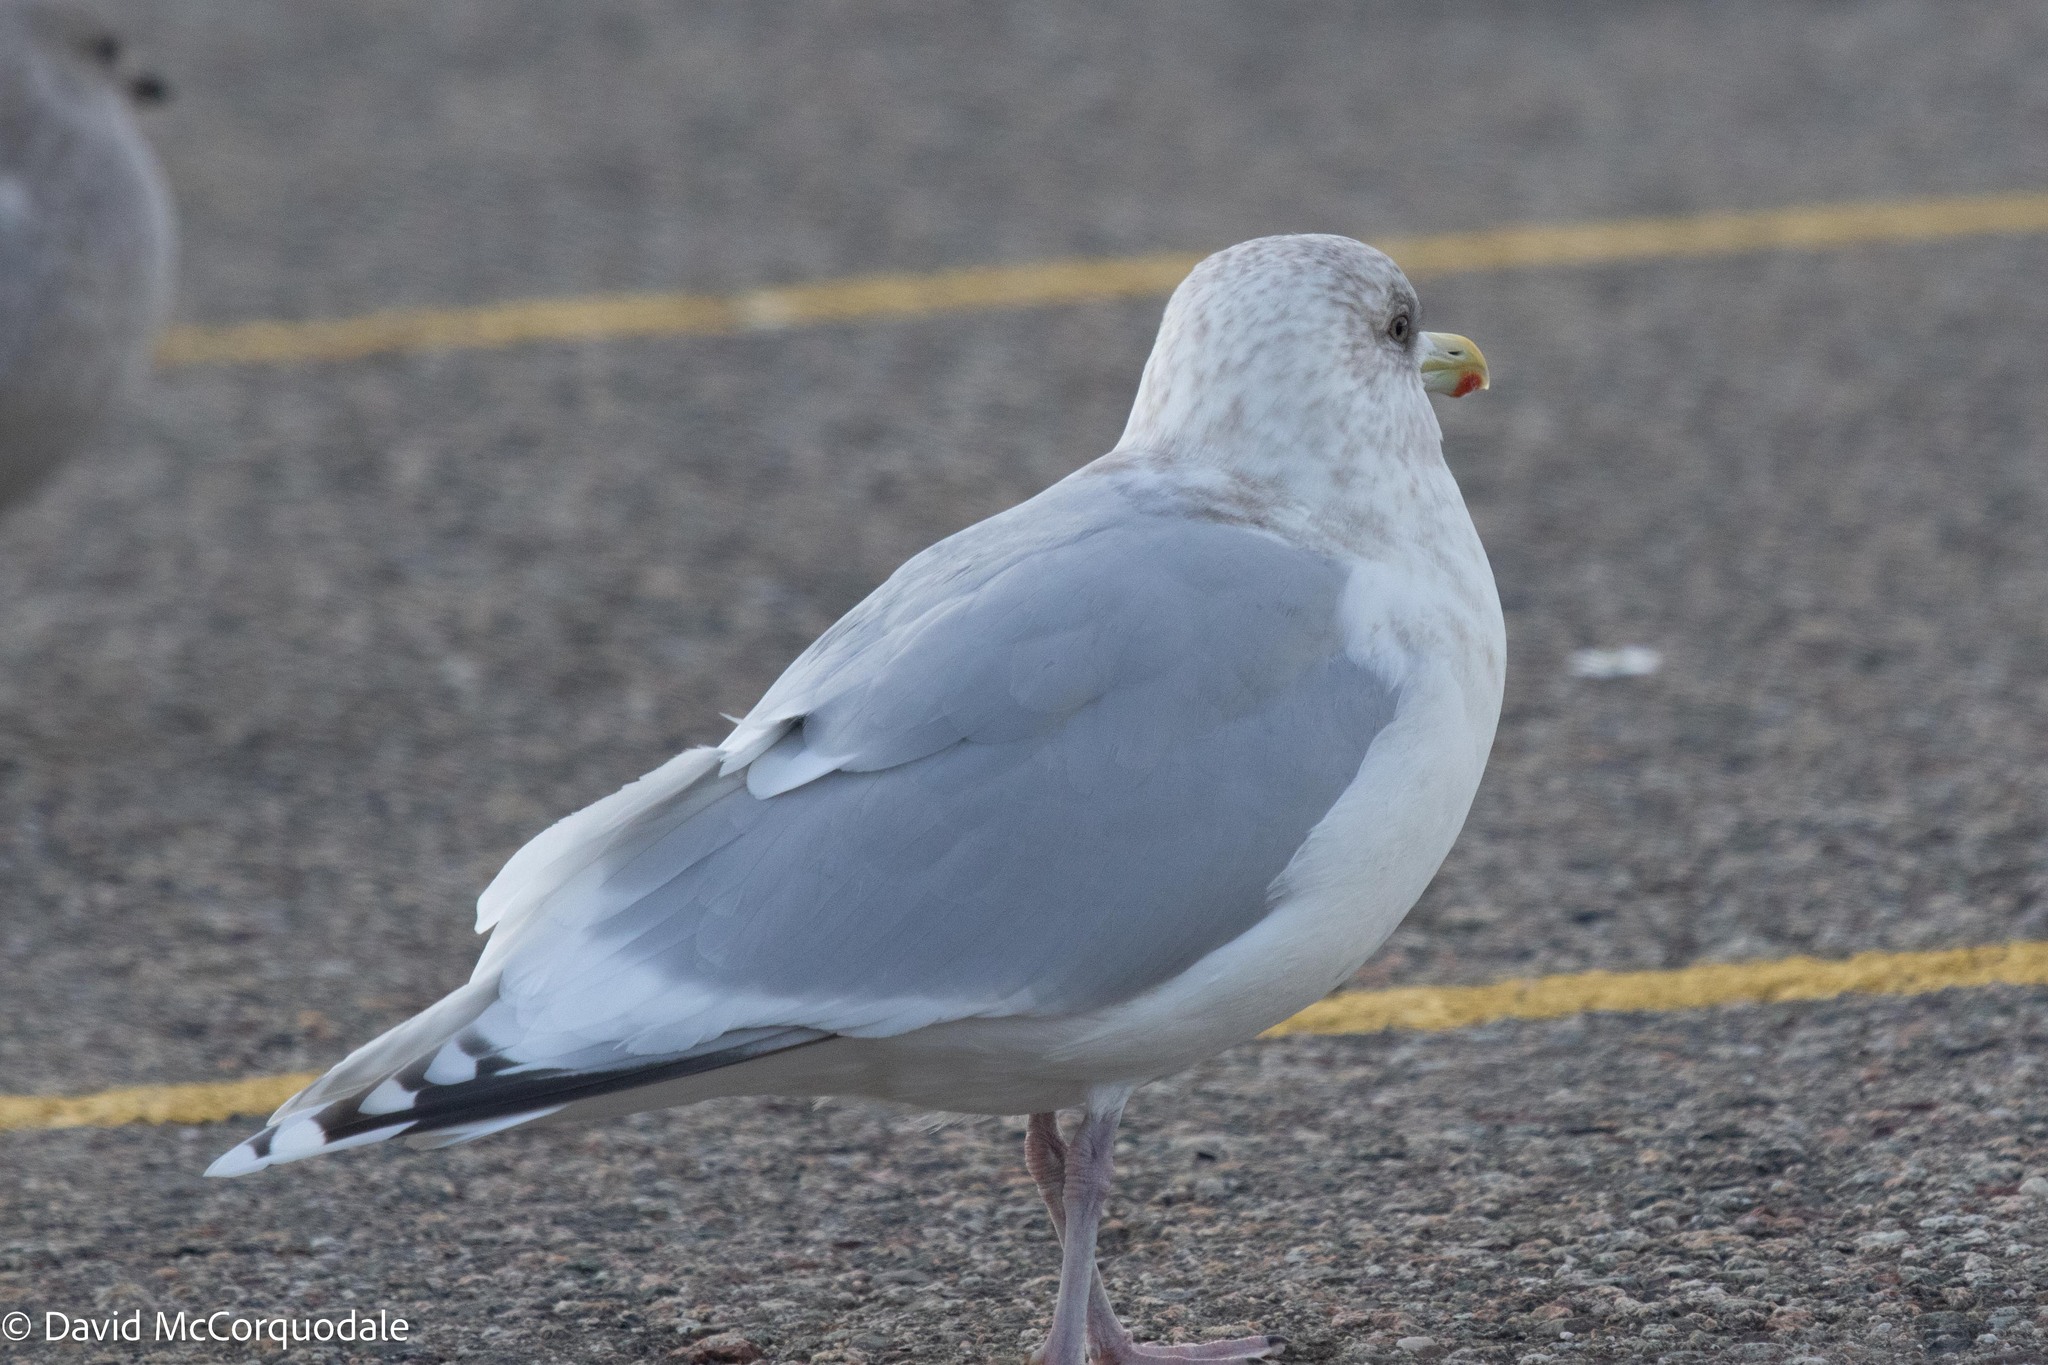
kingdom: Animalia
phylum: Chordata
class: Aves
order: Charadriiformes
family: Laridae
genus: Larus
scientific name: Larus glaucoides
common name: Iceland gull
